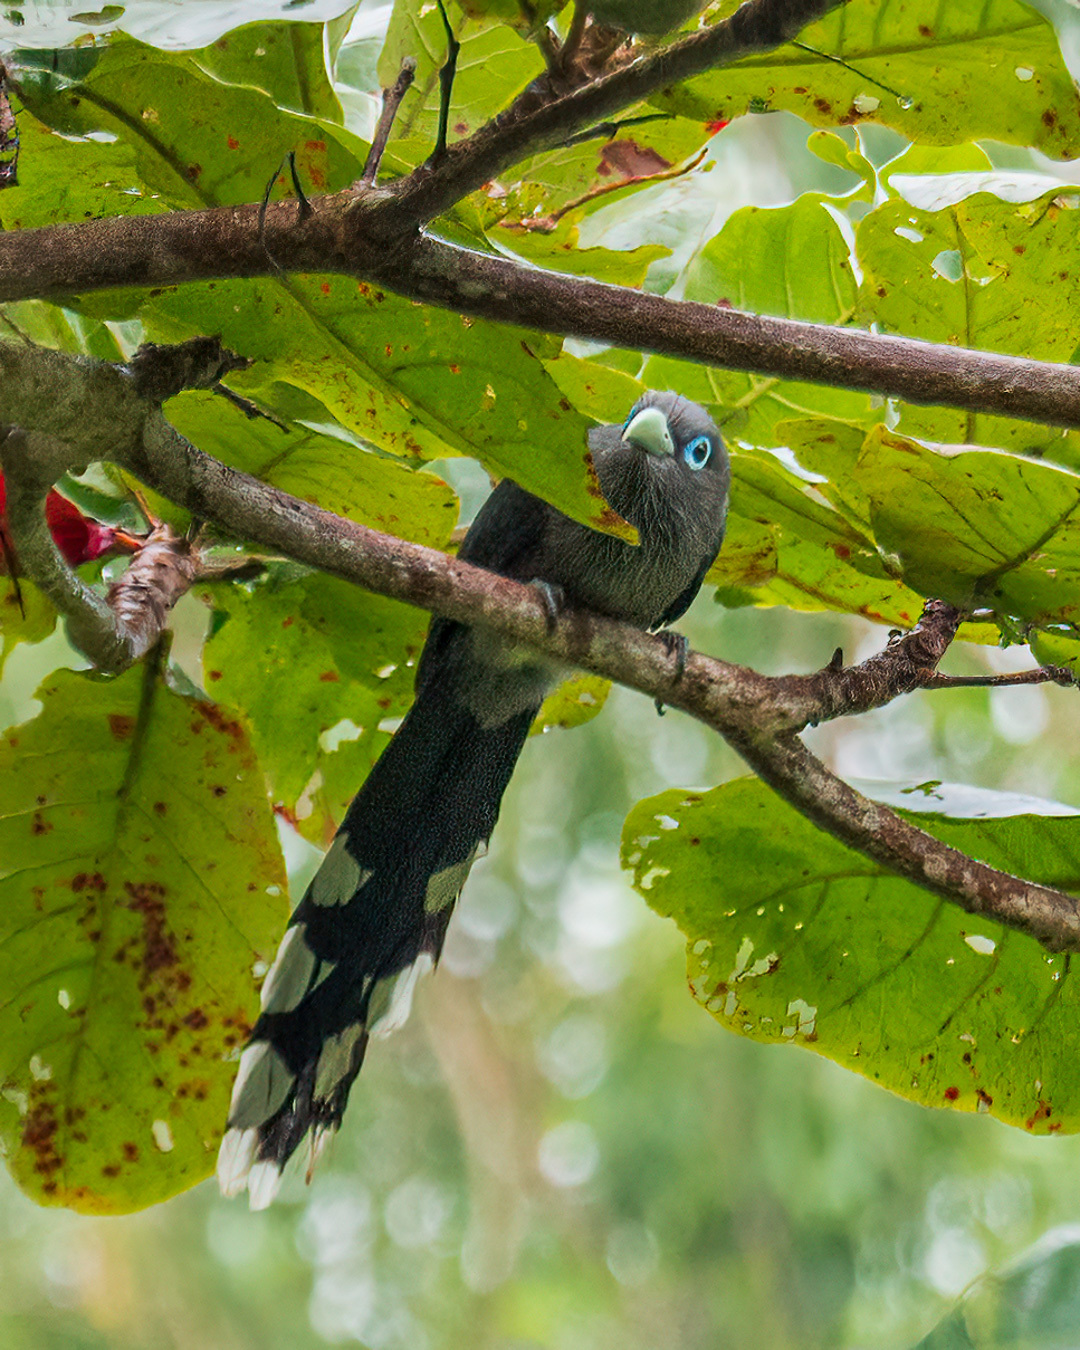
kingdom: Animalia
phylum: Chordata
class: Aves
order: Cuculiformes
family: Cuculidae
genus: Rhopodytes
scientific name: Rhopodytes viridirostris
